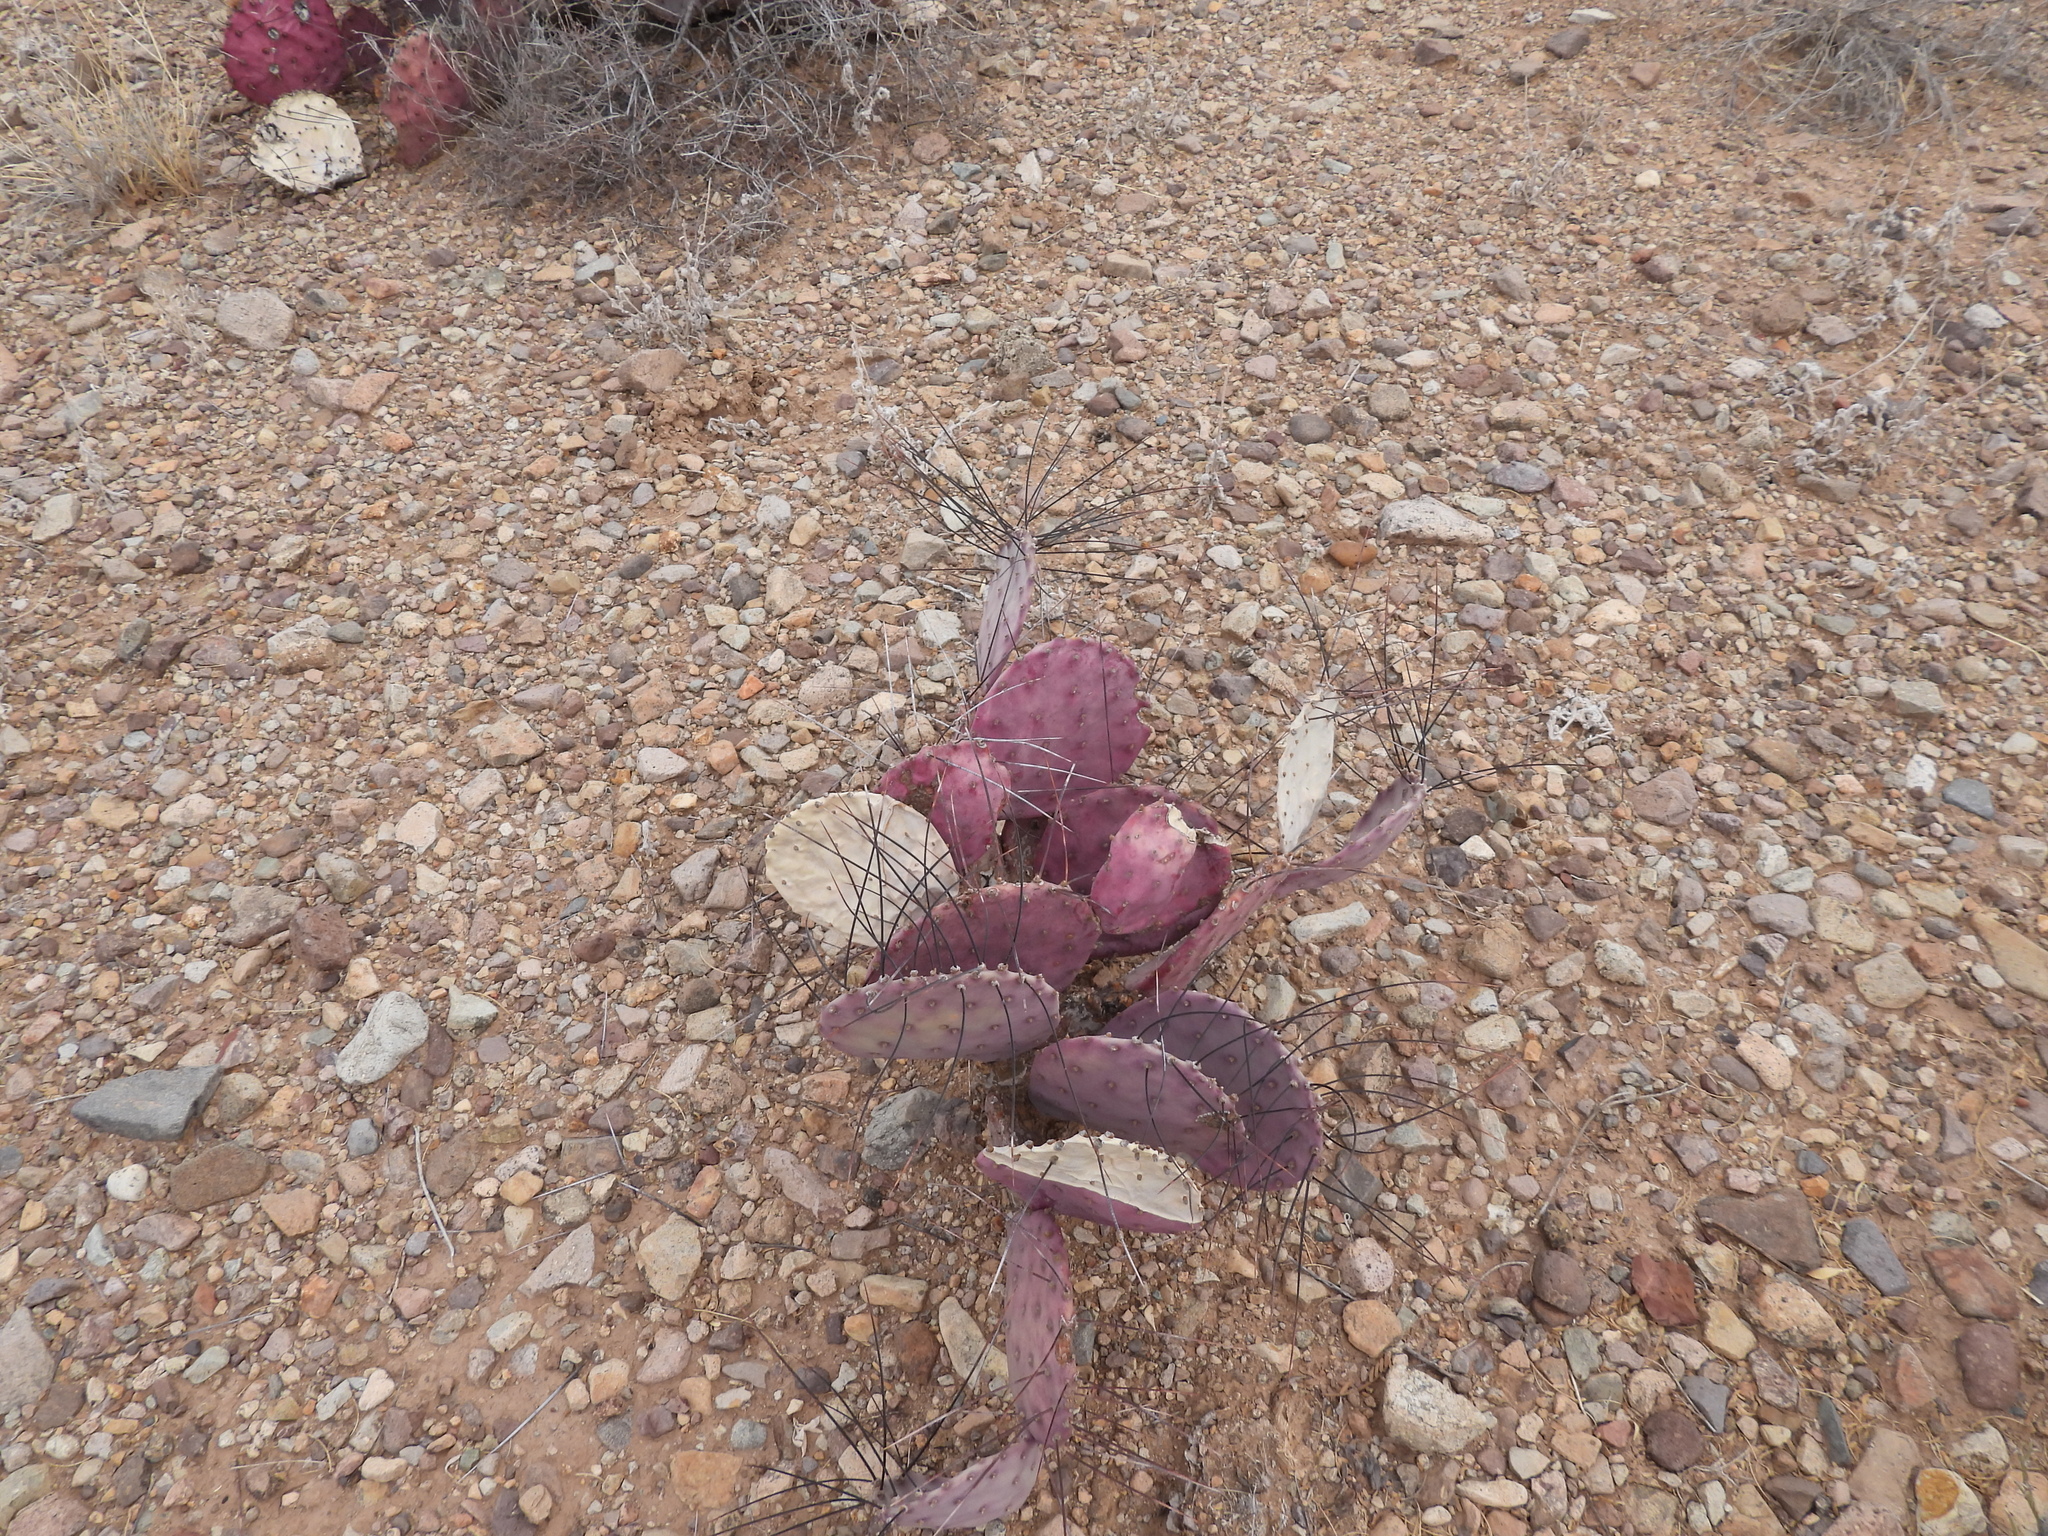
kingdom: Plantae
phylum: Tracheophyta
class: Magnoliopsida
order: Caryophyllales
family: Cactaceae
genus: Opuntia
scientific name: Opuntia phaeacantha
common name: New mexico prickly-pear
